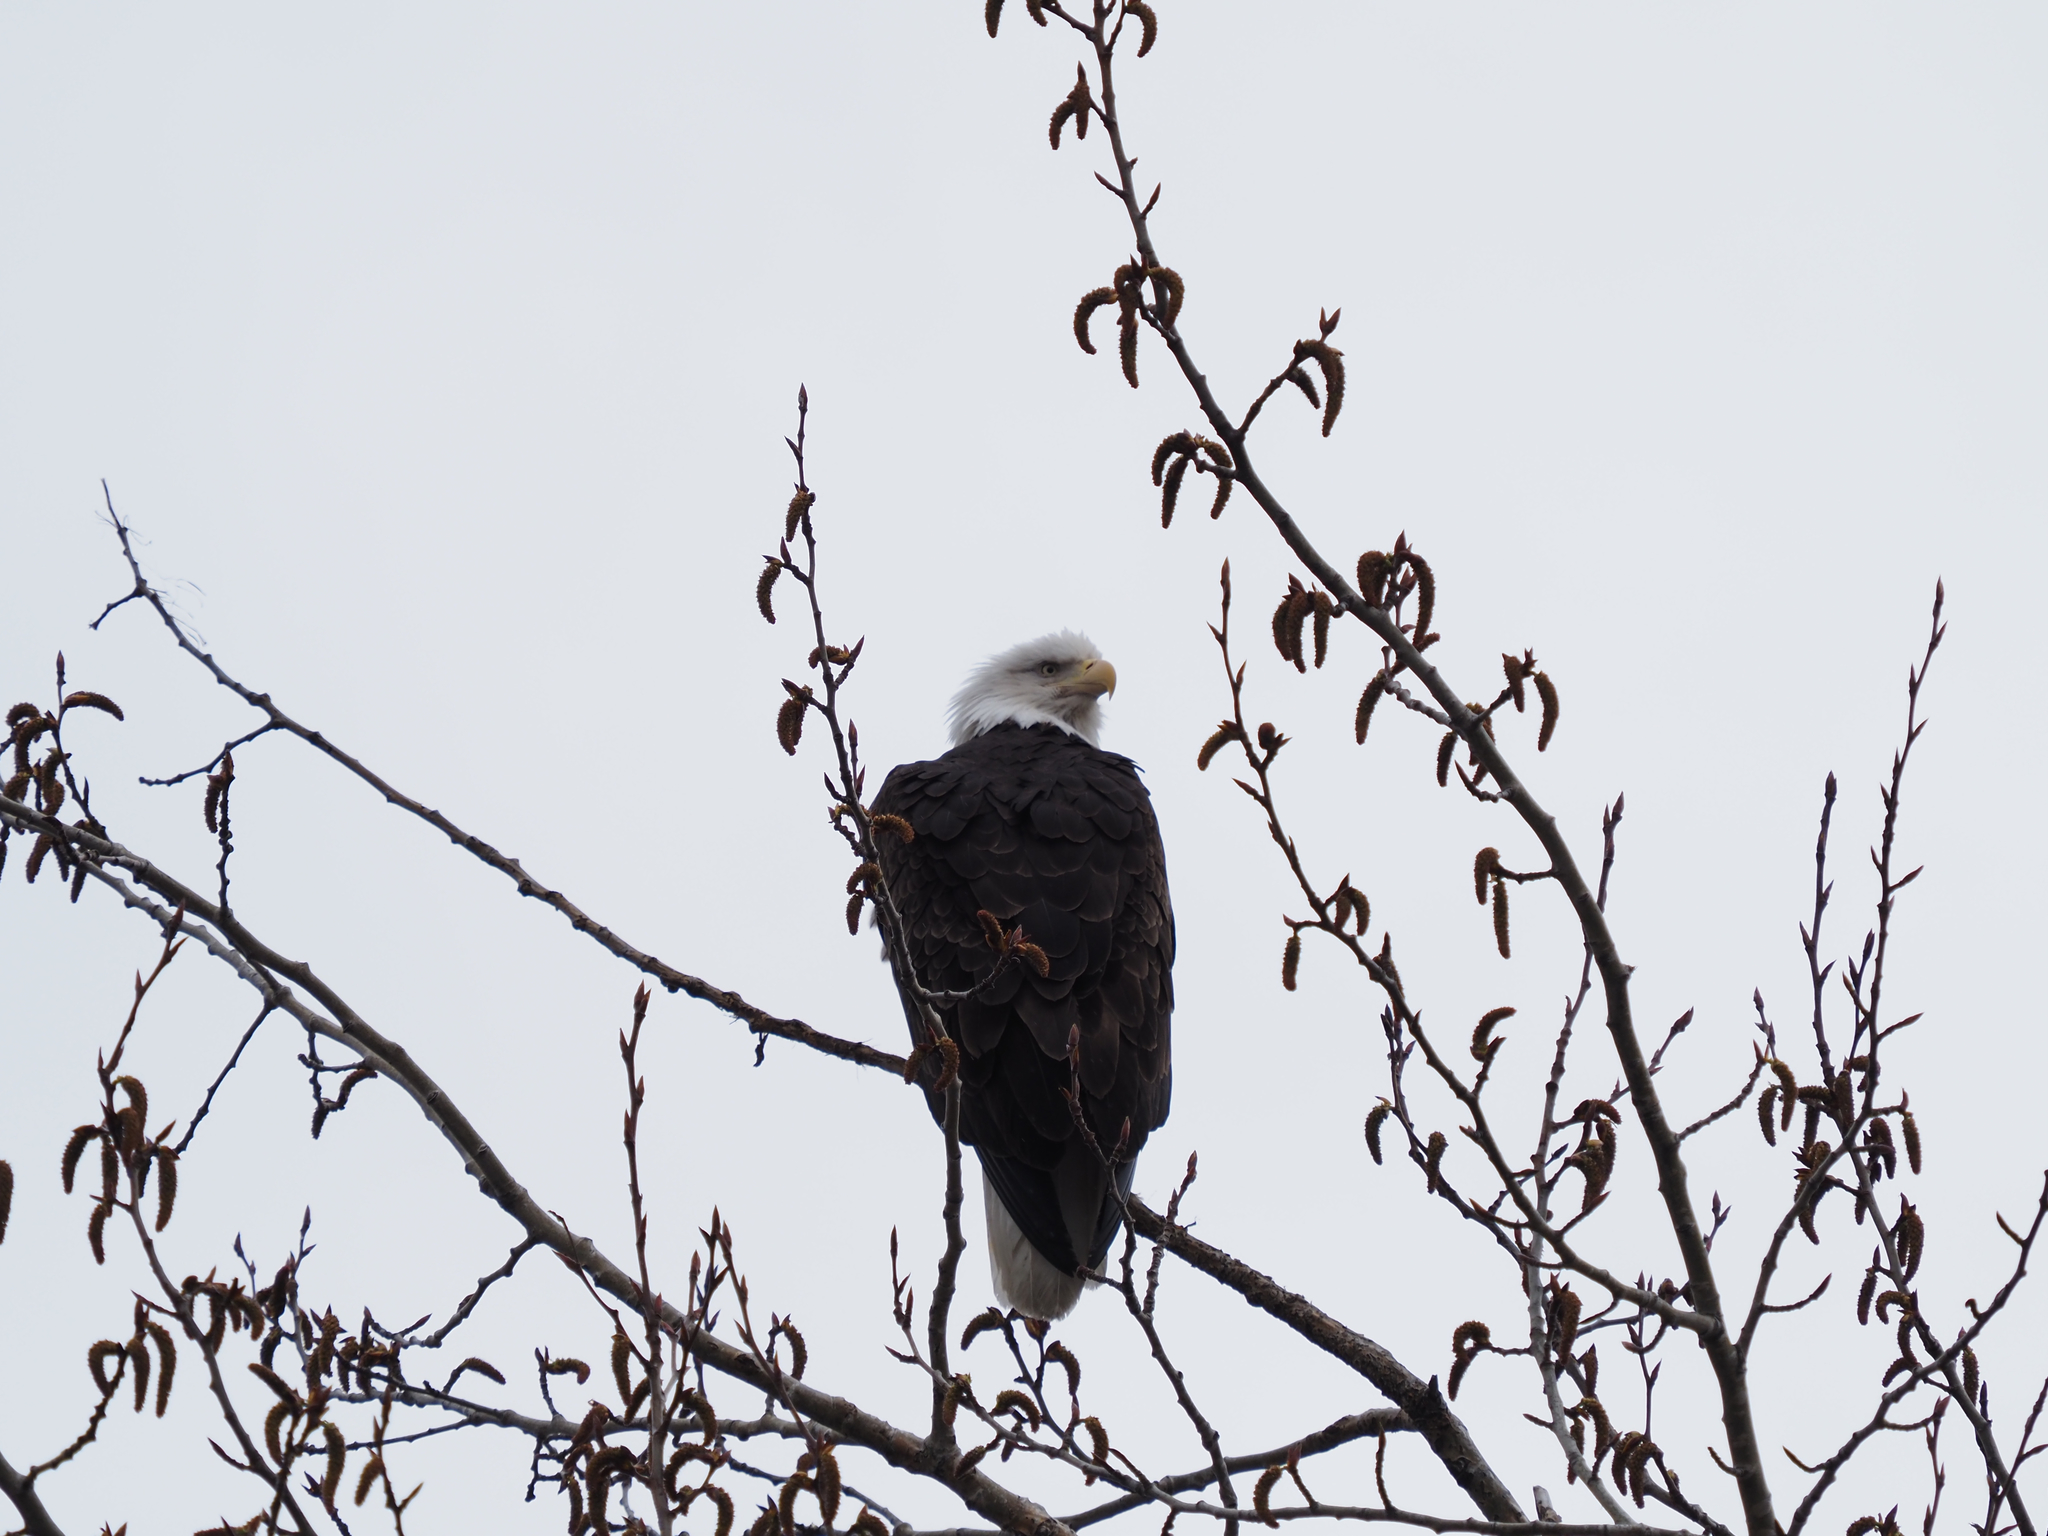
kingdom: Animalia
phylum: Chordata
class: Aves
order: Accipitriformes
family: Accipitridae
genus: Haliaeetus
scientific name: Haliaeetus leucocephalus
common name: Bald eagle
